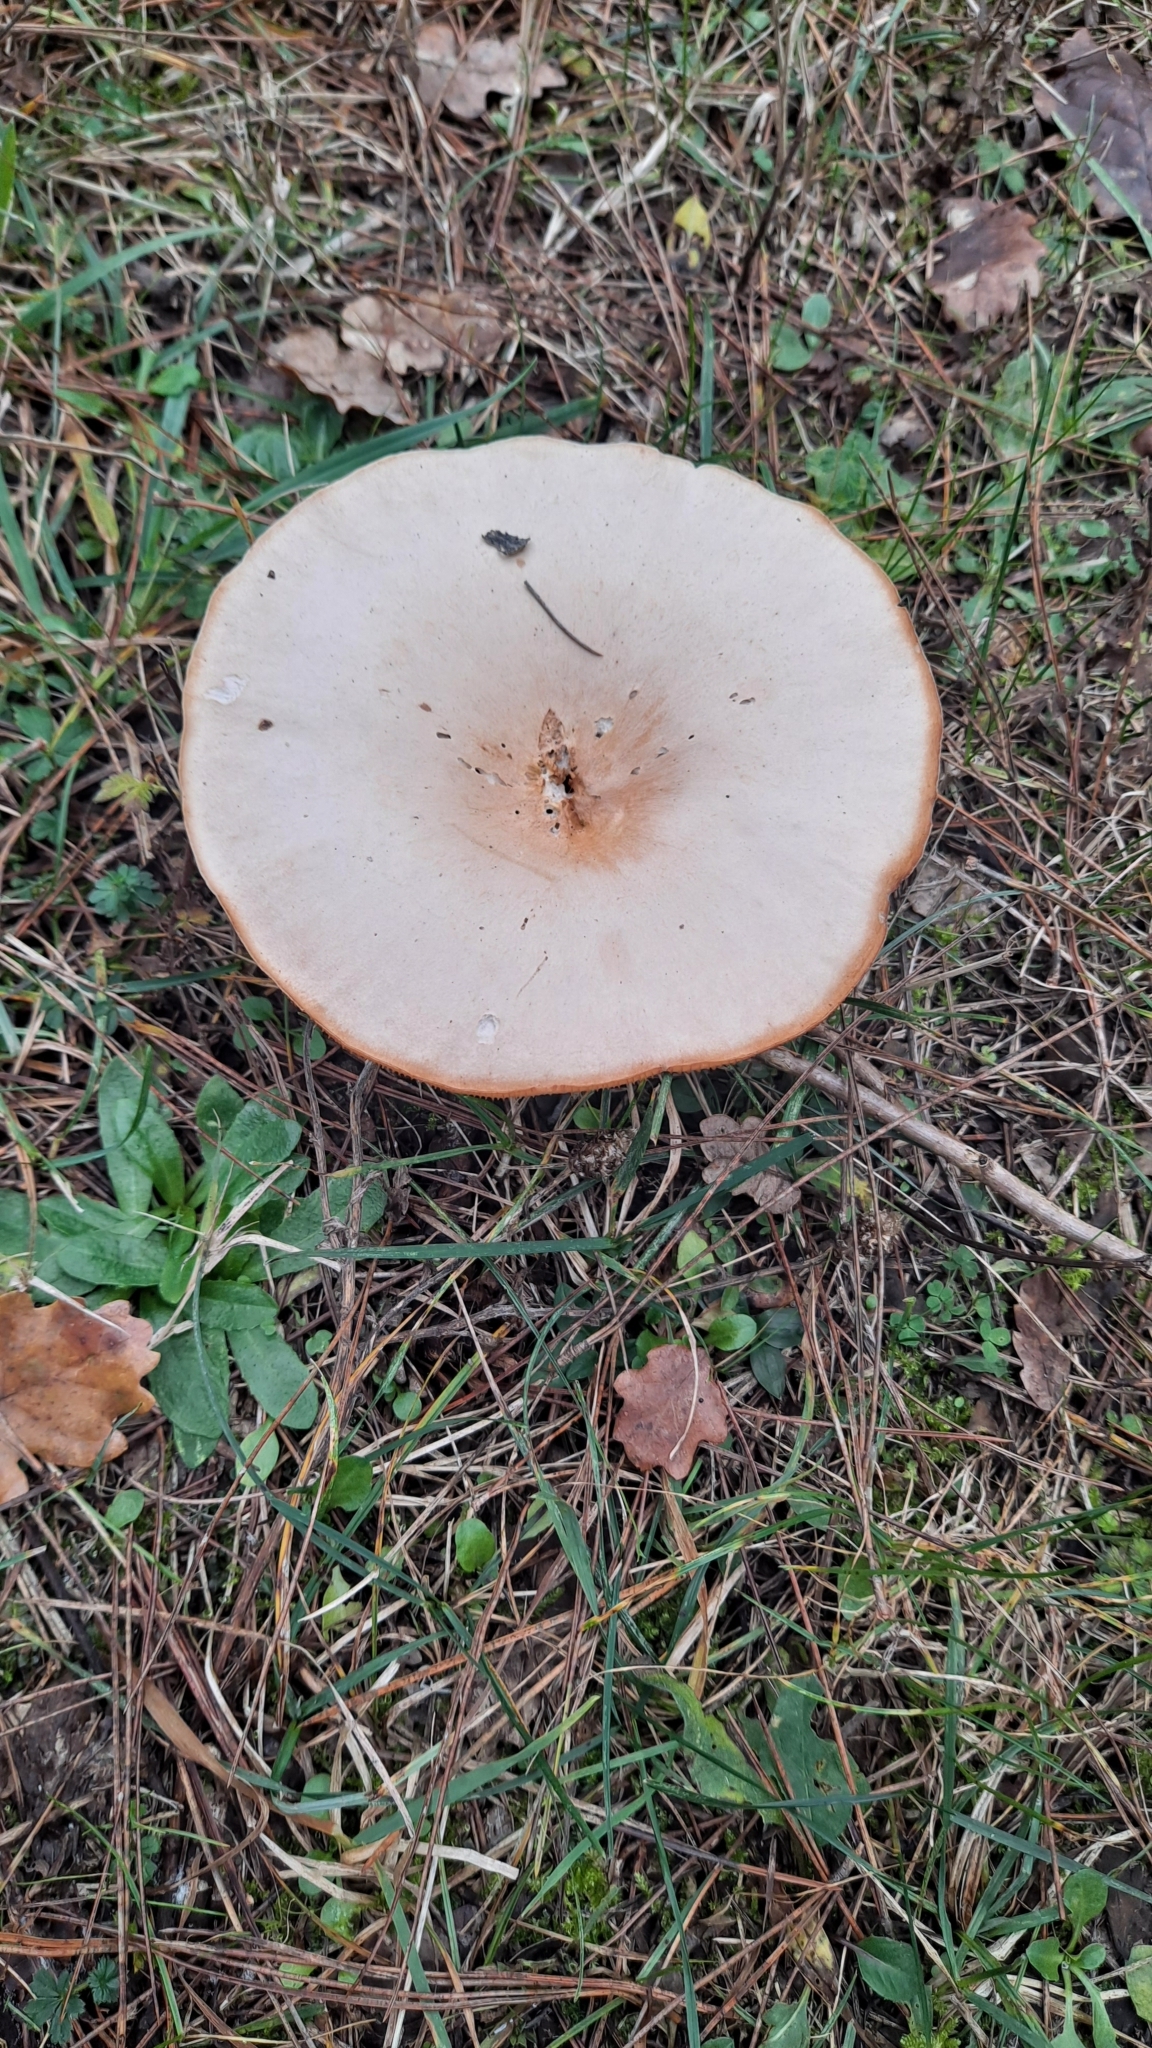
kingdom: Fungi
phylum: Basidiomycota
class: Agaricomycetes
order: Agaricales
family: Tricholomataceae
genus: Infundibulicybe
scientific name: Infundibulicybe geotropa
